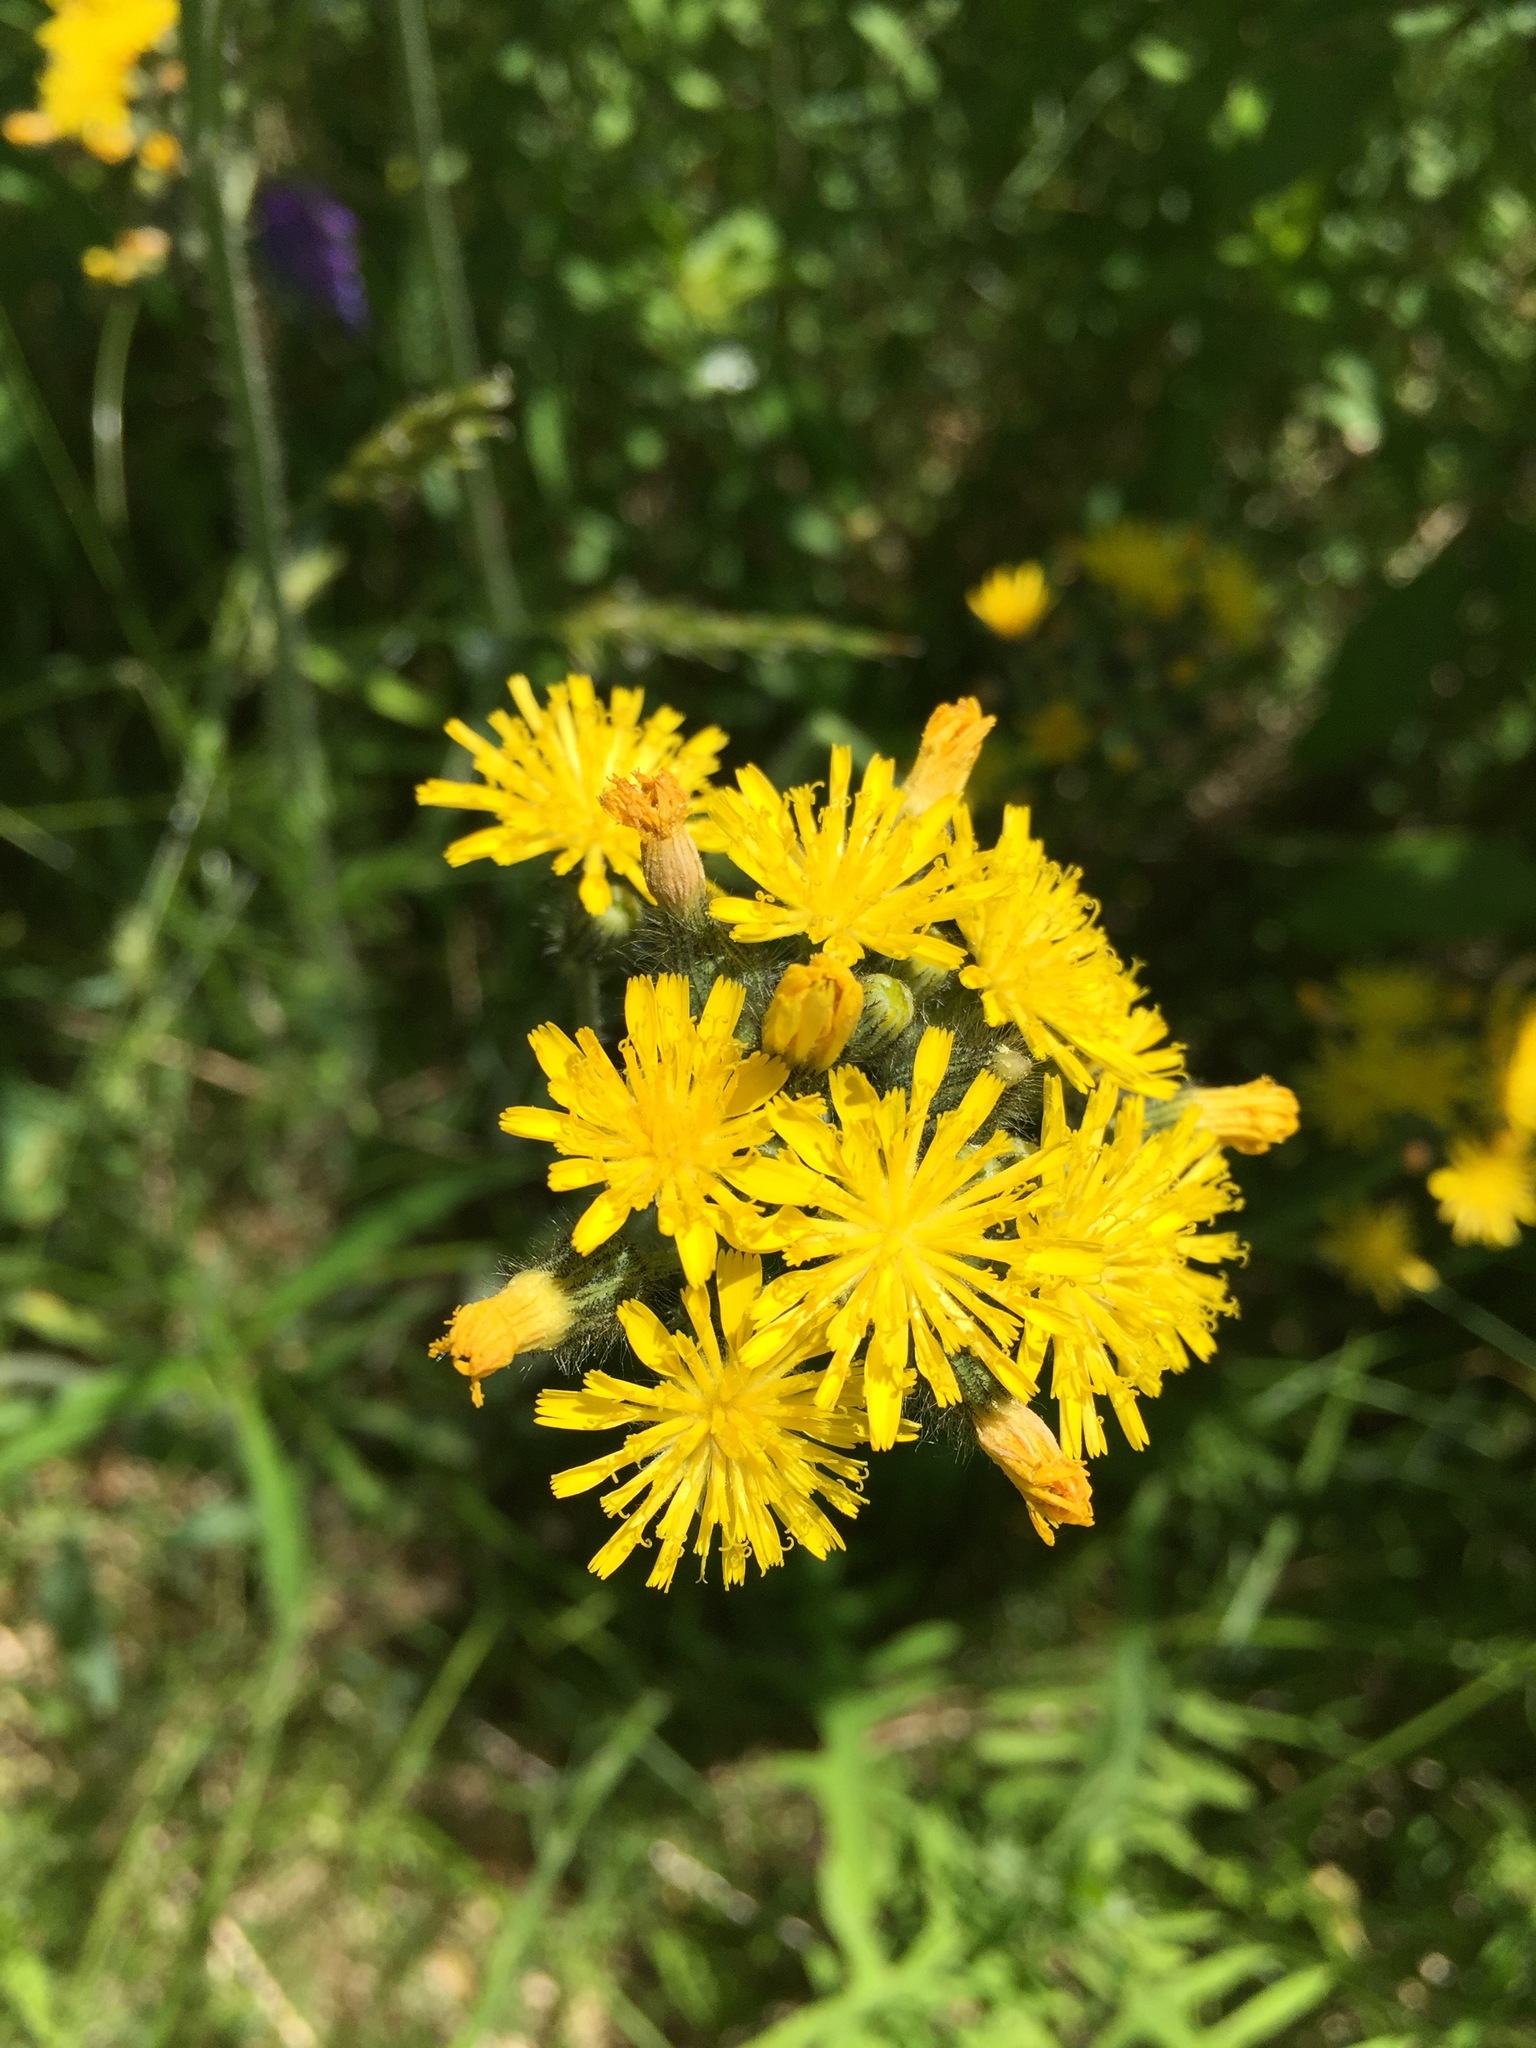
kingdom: Plantae
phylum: Tracheophyta
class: Magnoliopsida
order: Asterales
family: Asteraceae
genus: Pilosella
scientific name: Pilosella caespitosa
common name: Yellow fox-and-cubs
